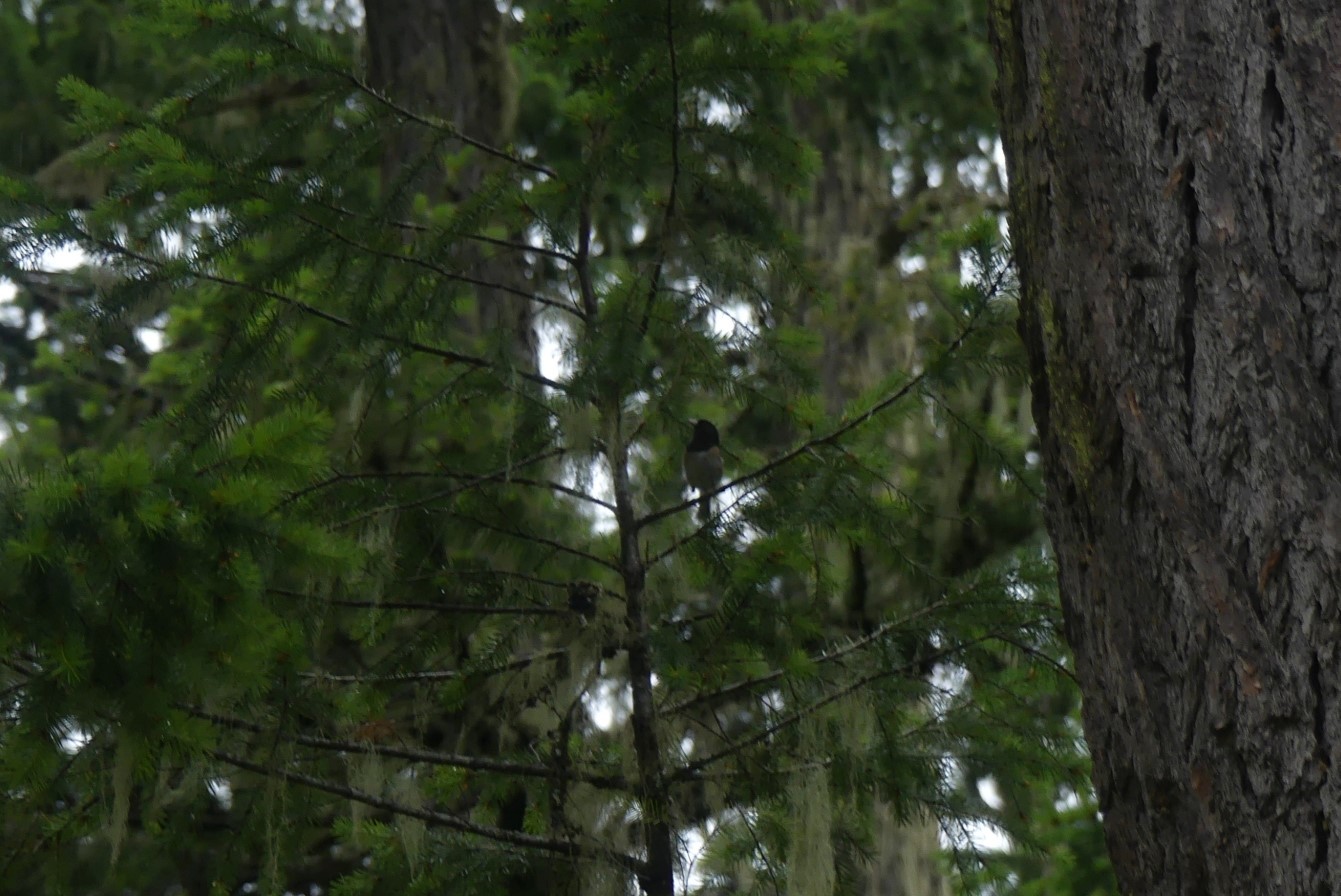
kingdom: Animalia
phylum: Chordata
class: Aves
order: Passeriformes
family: Passerellidae
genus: Junco
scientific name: Junco hyemalis
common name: Dark-eyed junco
